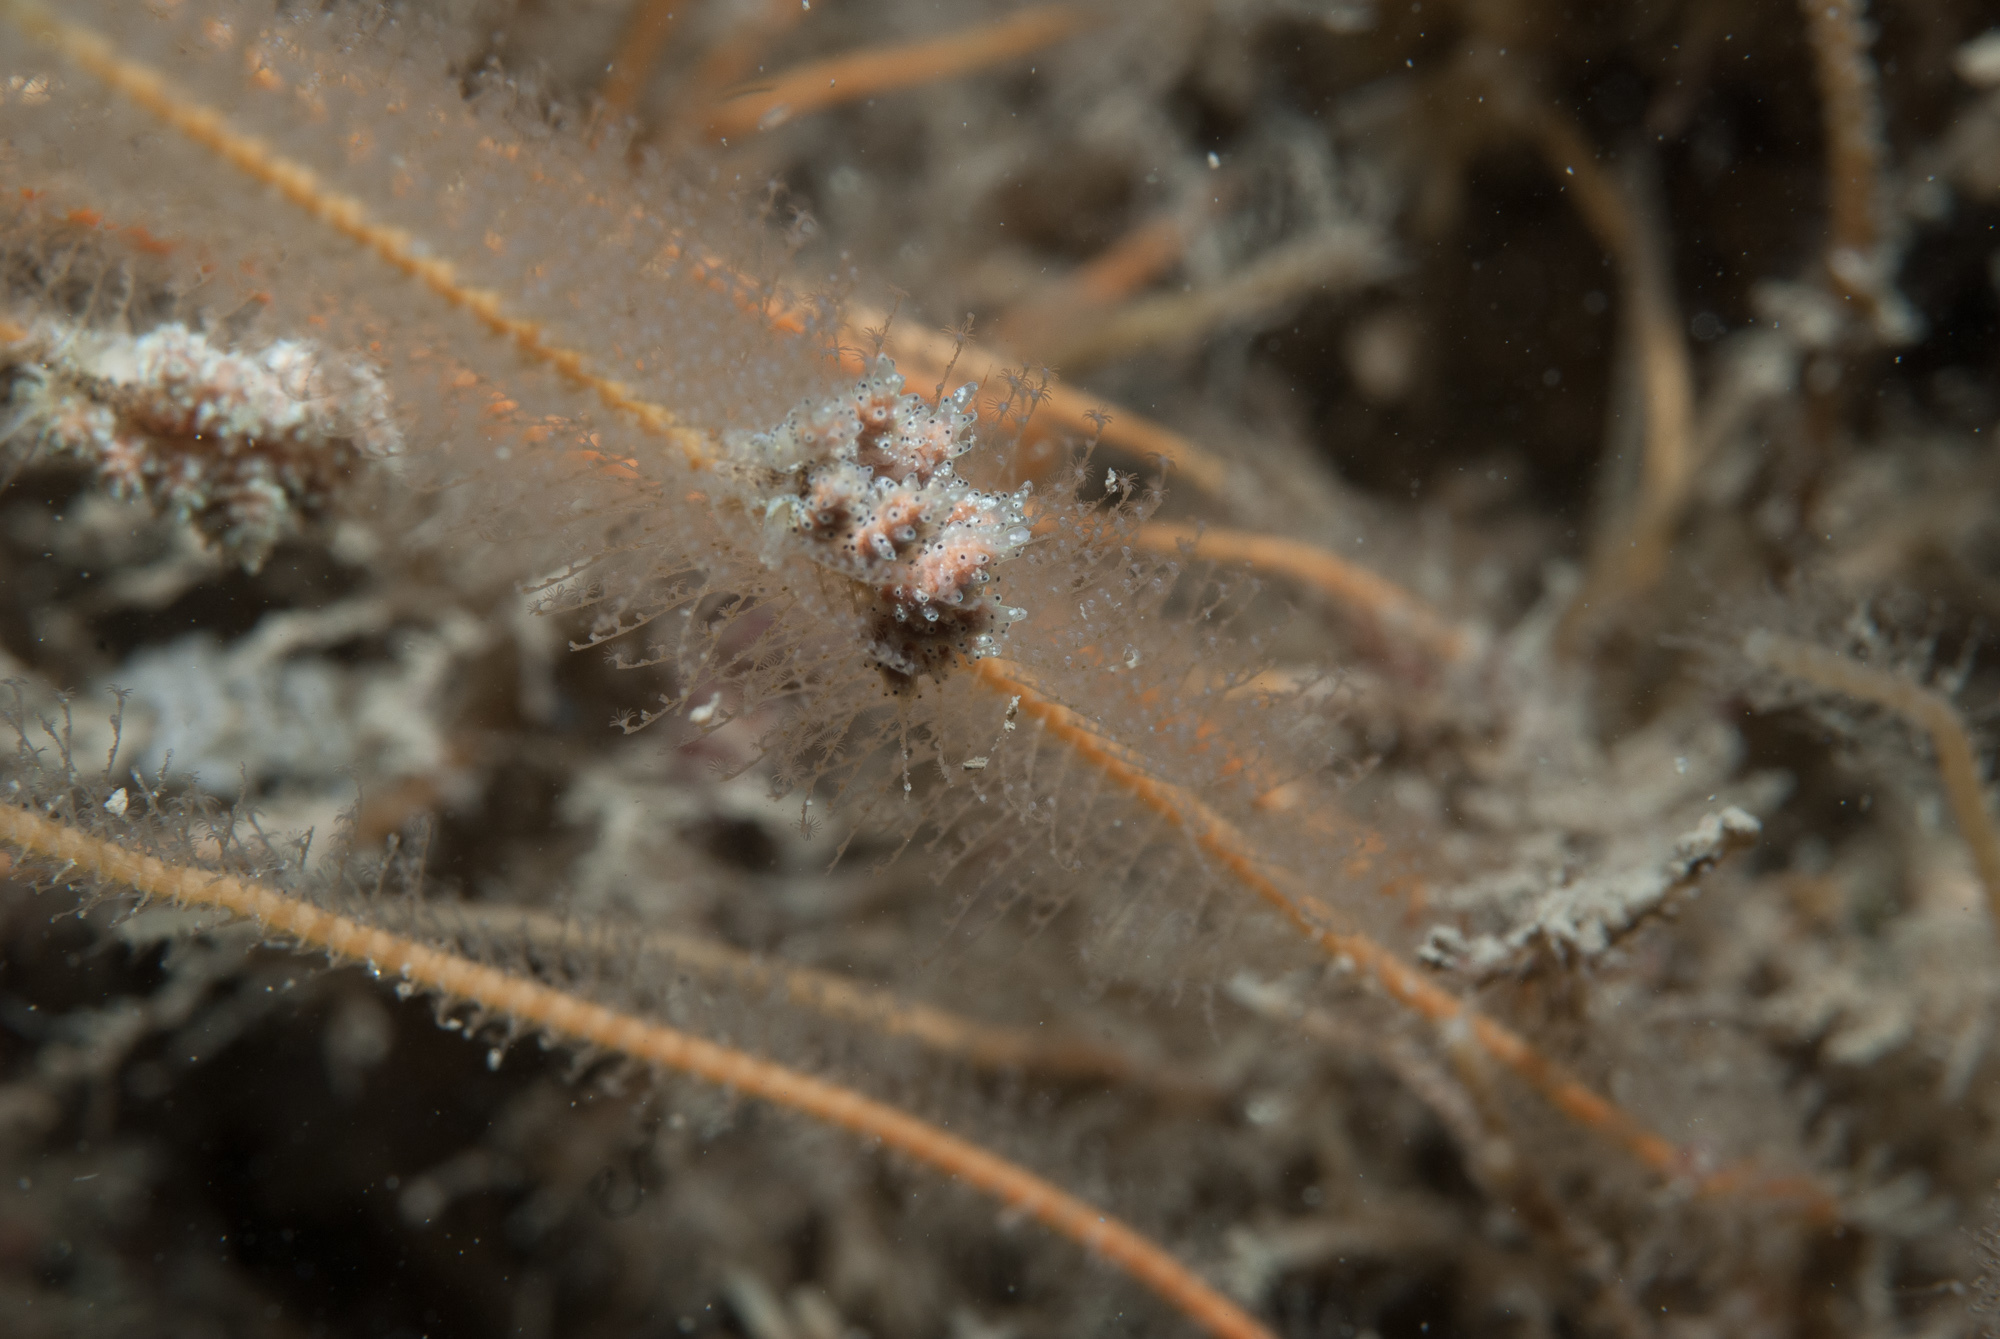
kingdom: Animalia
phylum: Mollusca
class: Gastropoda
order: Nudibranchia
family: Dotidae
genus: Doto
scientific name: Doto pinnatifida
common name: Feathered doto
